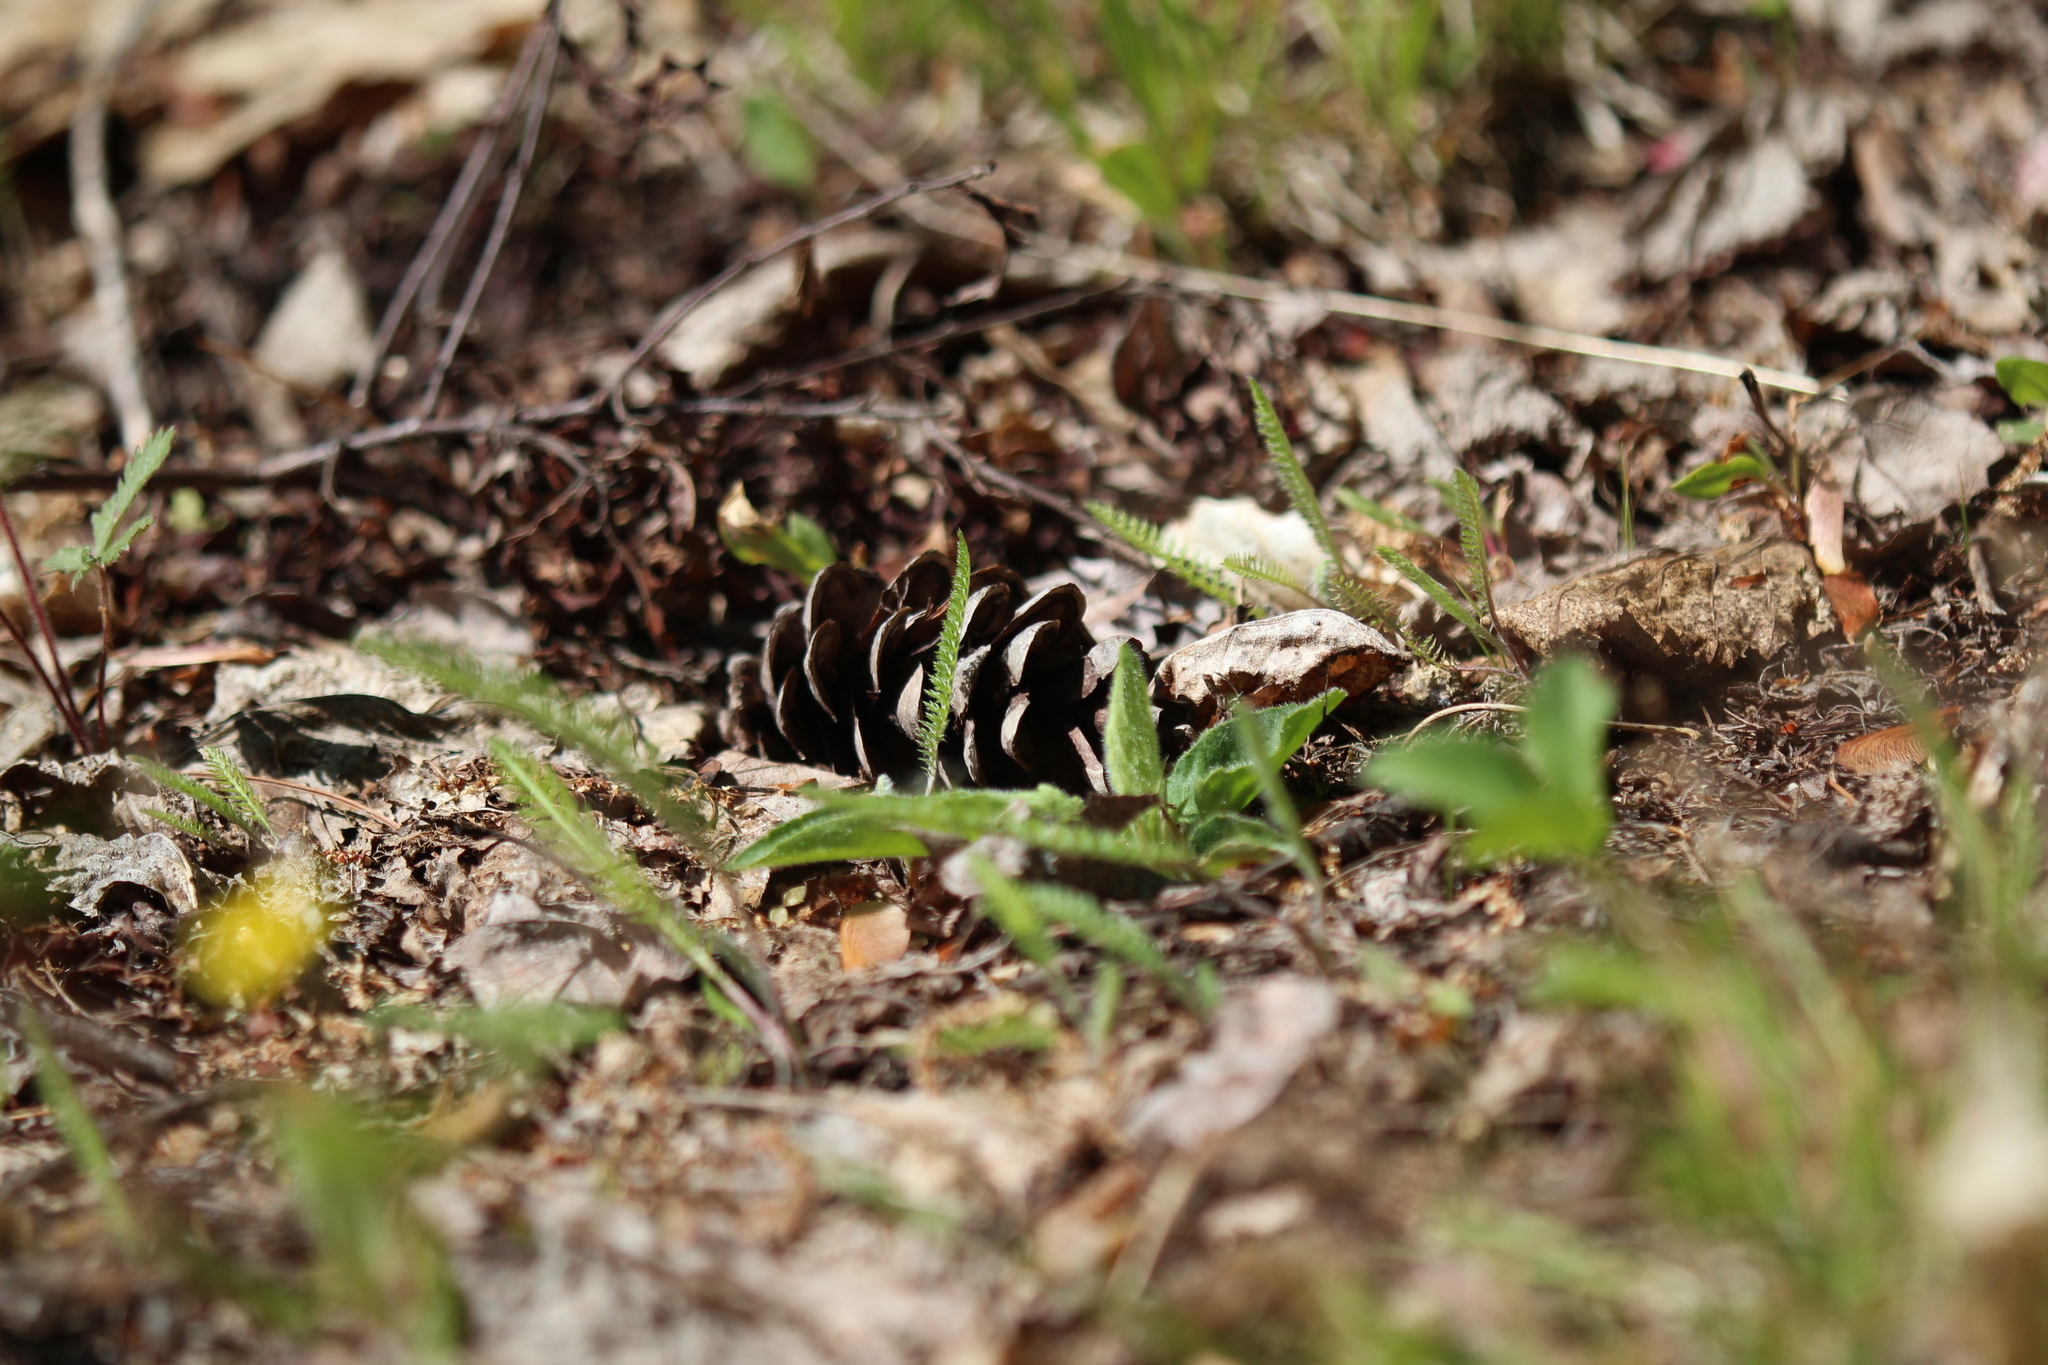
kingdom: Plantae
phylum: Tracheophyta
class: Pinopsida
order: Pinales
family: Pinaceae
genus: Pinus
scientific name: Pinus strobus
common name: Weymouth pine
